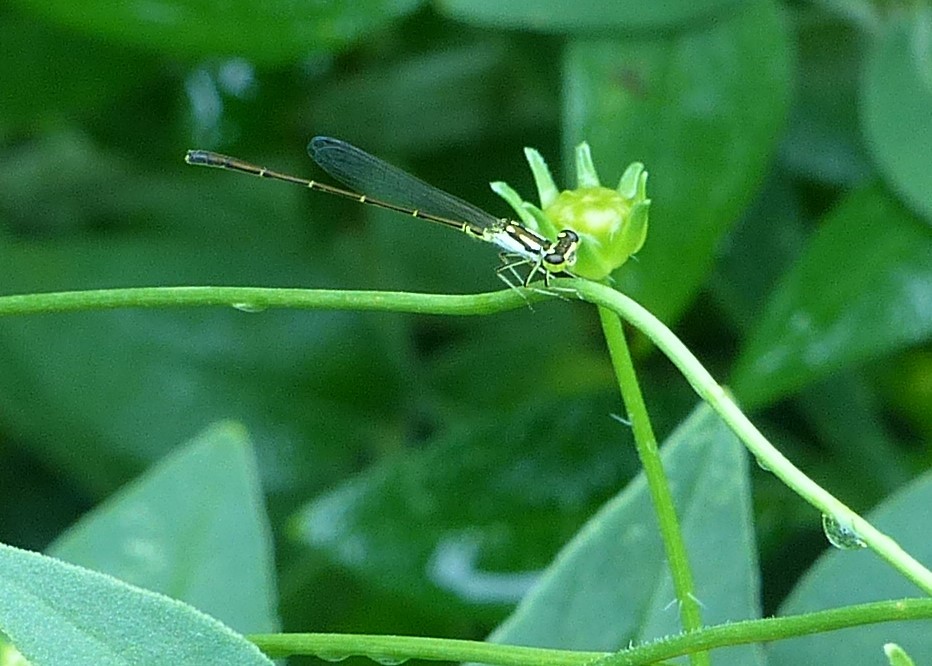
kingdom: Animalia
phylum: Arthropoda
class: Insecta
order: Odonata
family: Coenagrionidae
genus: Ischnura
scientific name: Ischnura posita
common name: Fragile forktail
